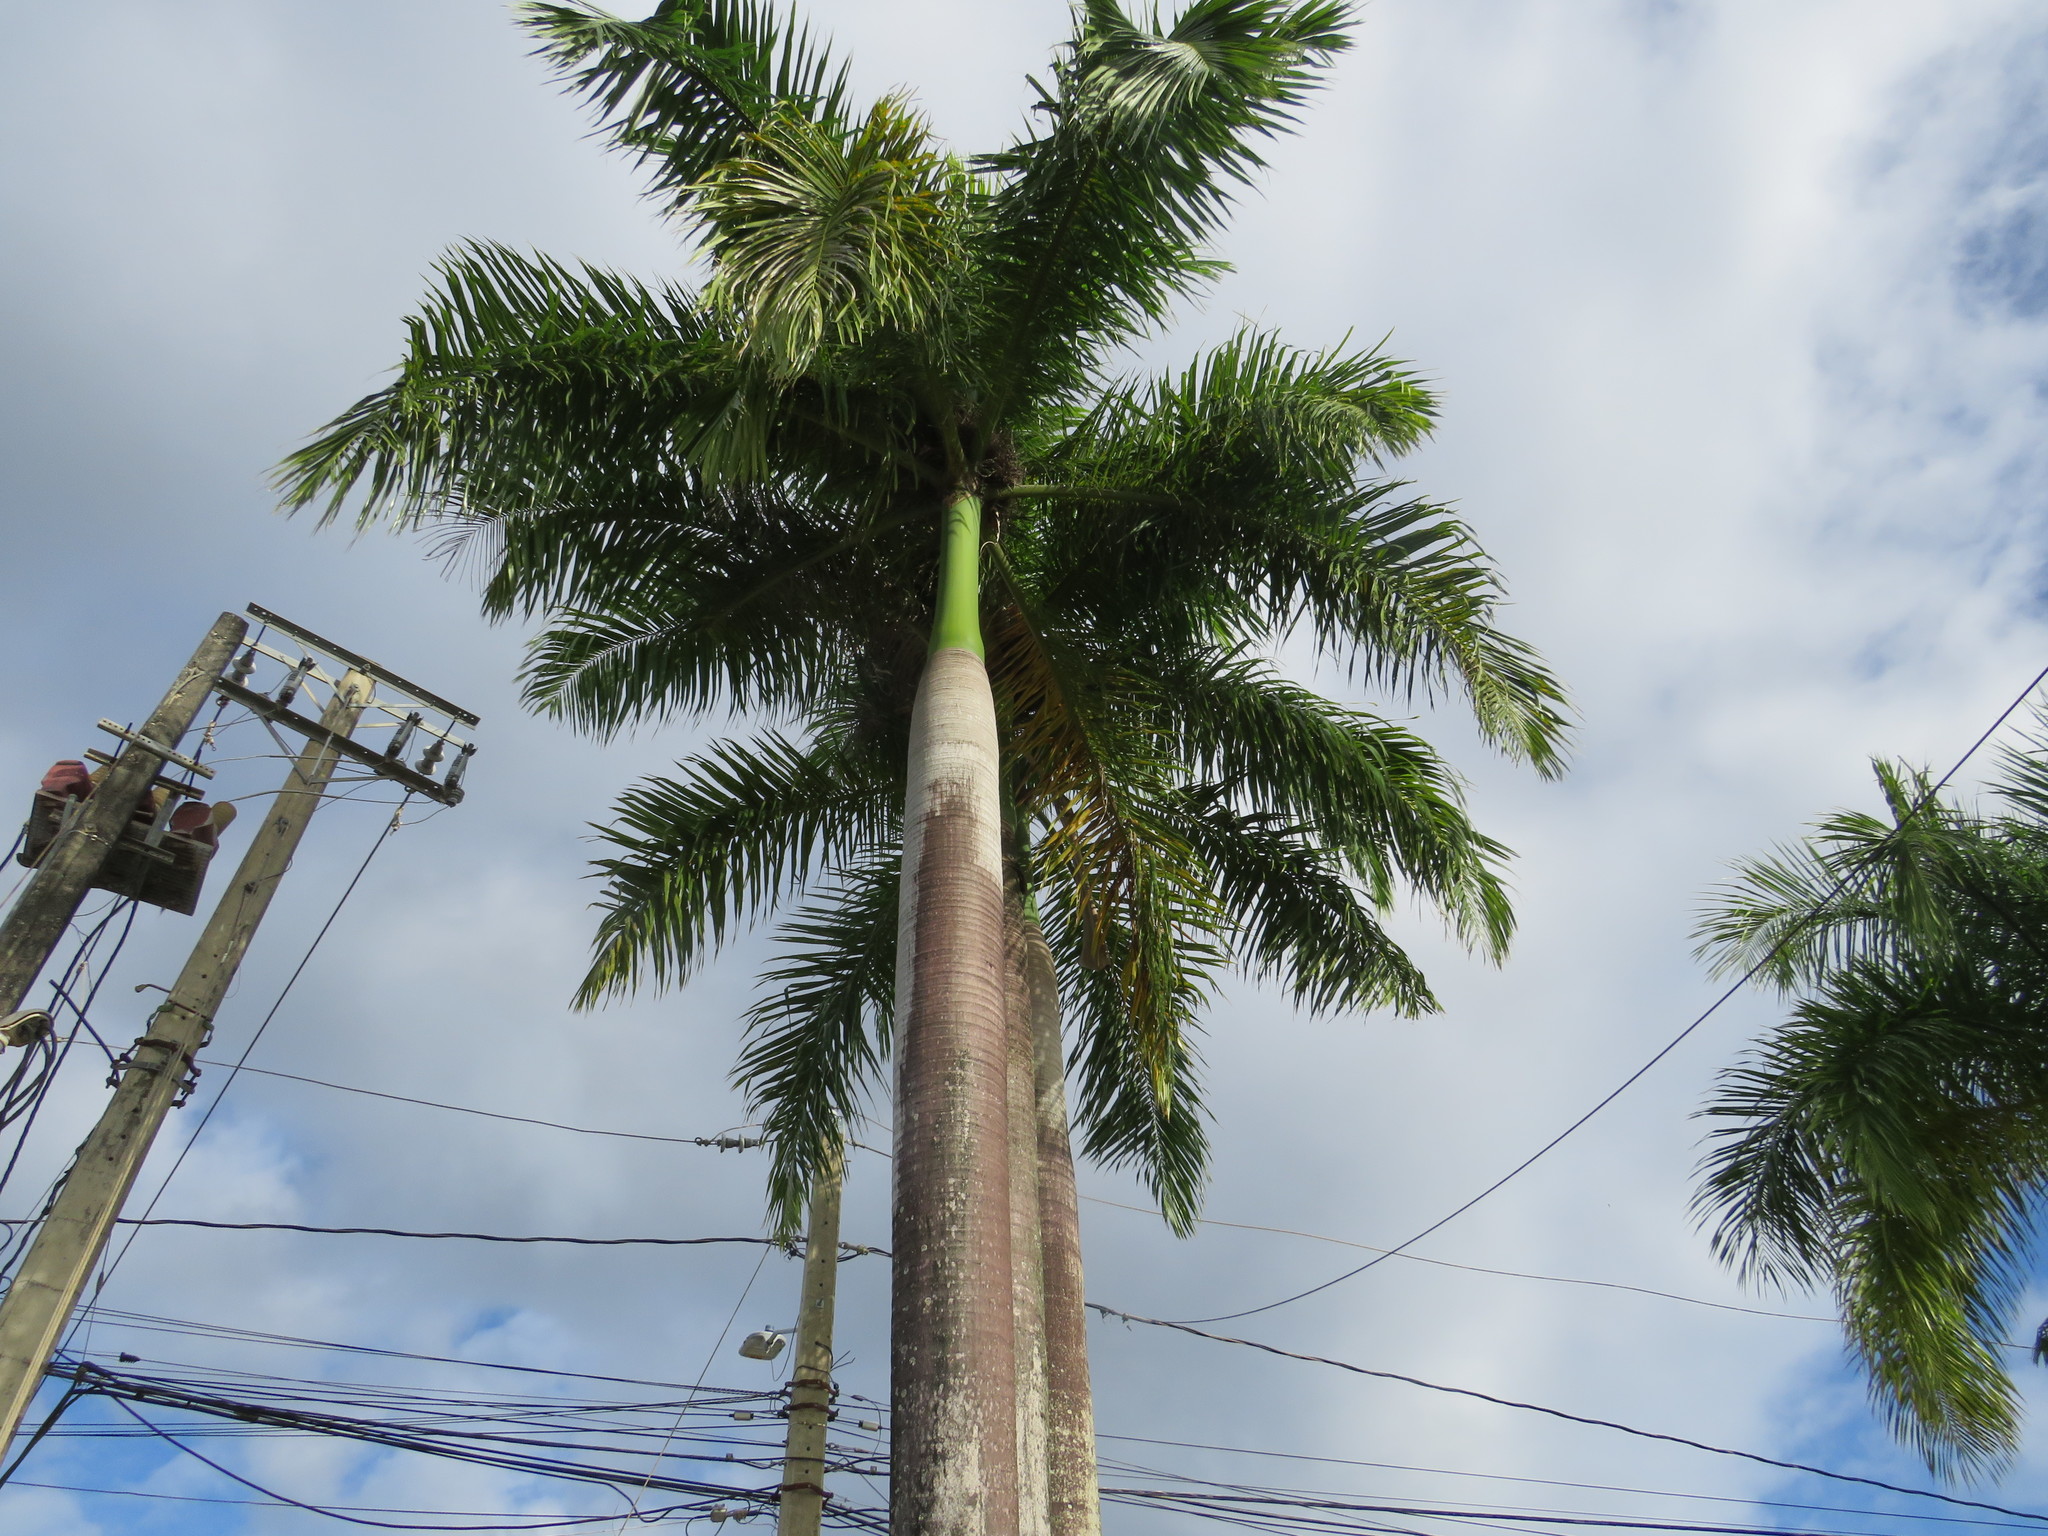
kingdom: Plantae
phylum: Tracheophyta
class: Liliopsida
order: Arecales
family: Arecaceae
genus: Roystonea
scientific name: Roystonea borinquena
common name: Puerto rican royal palm
